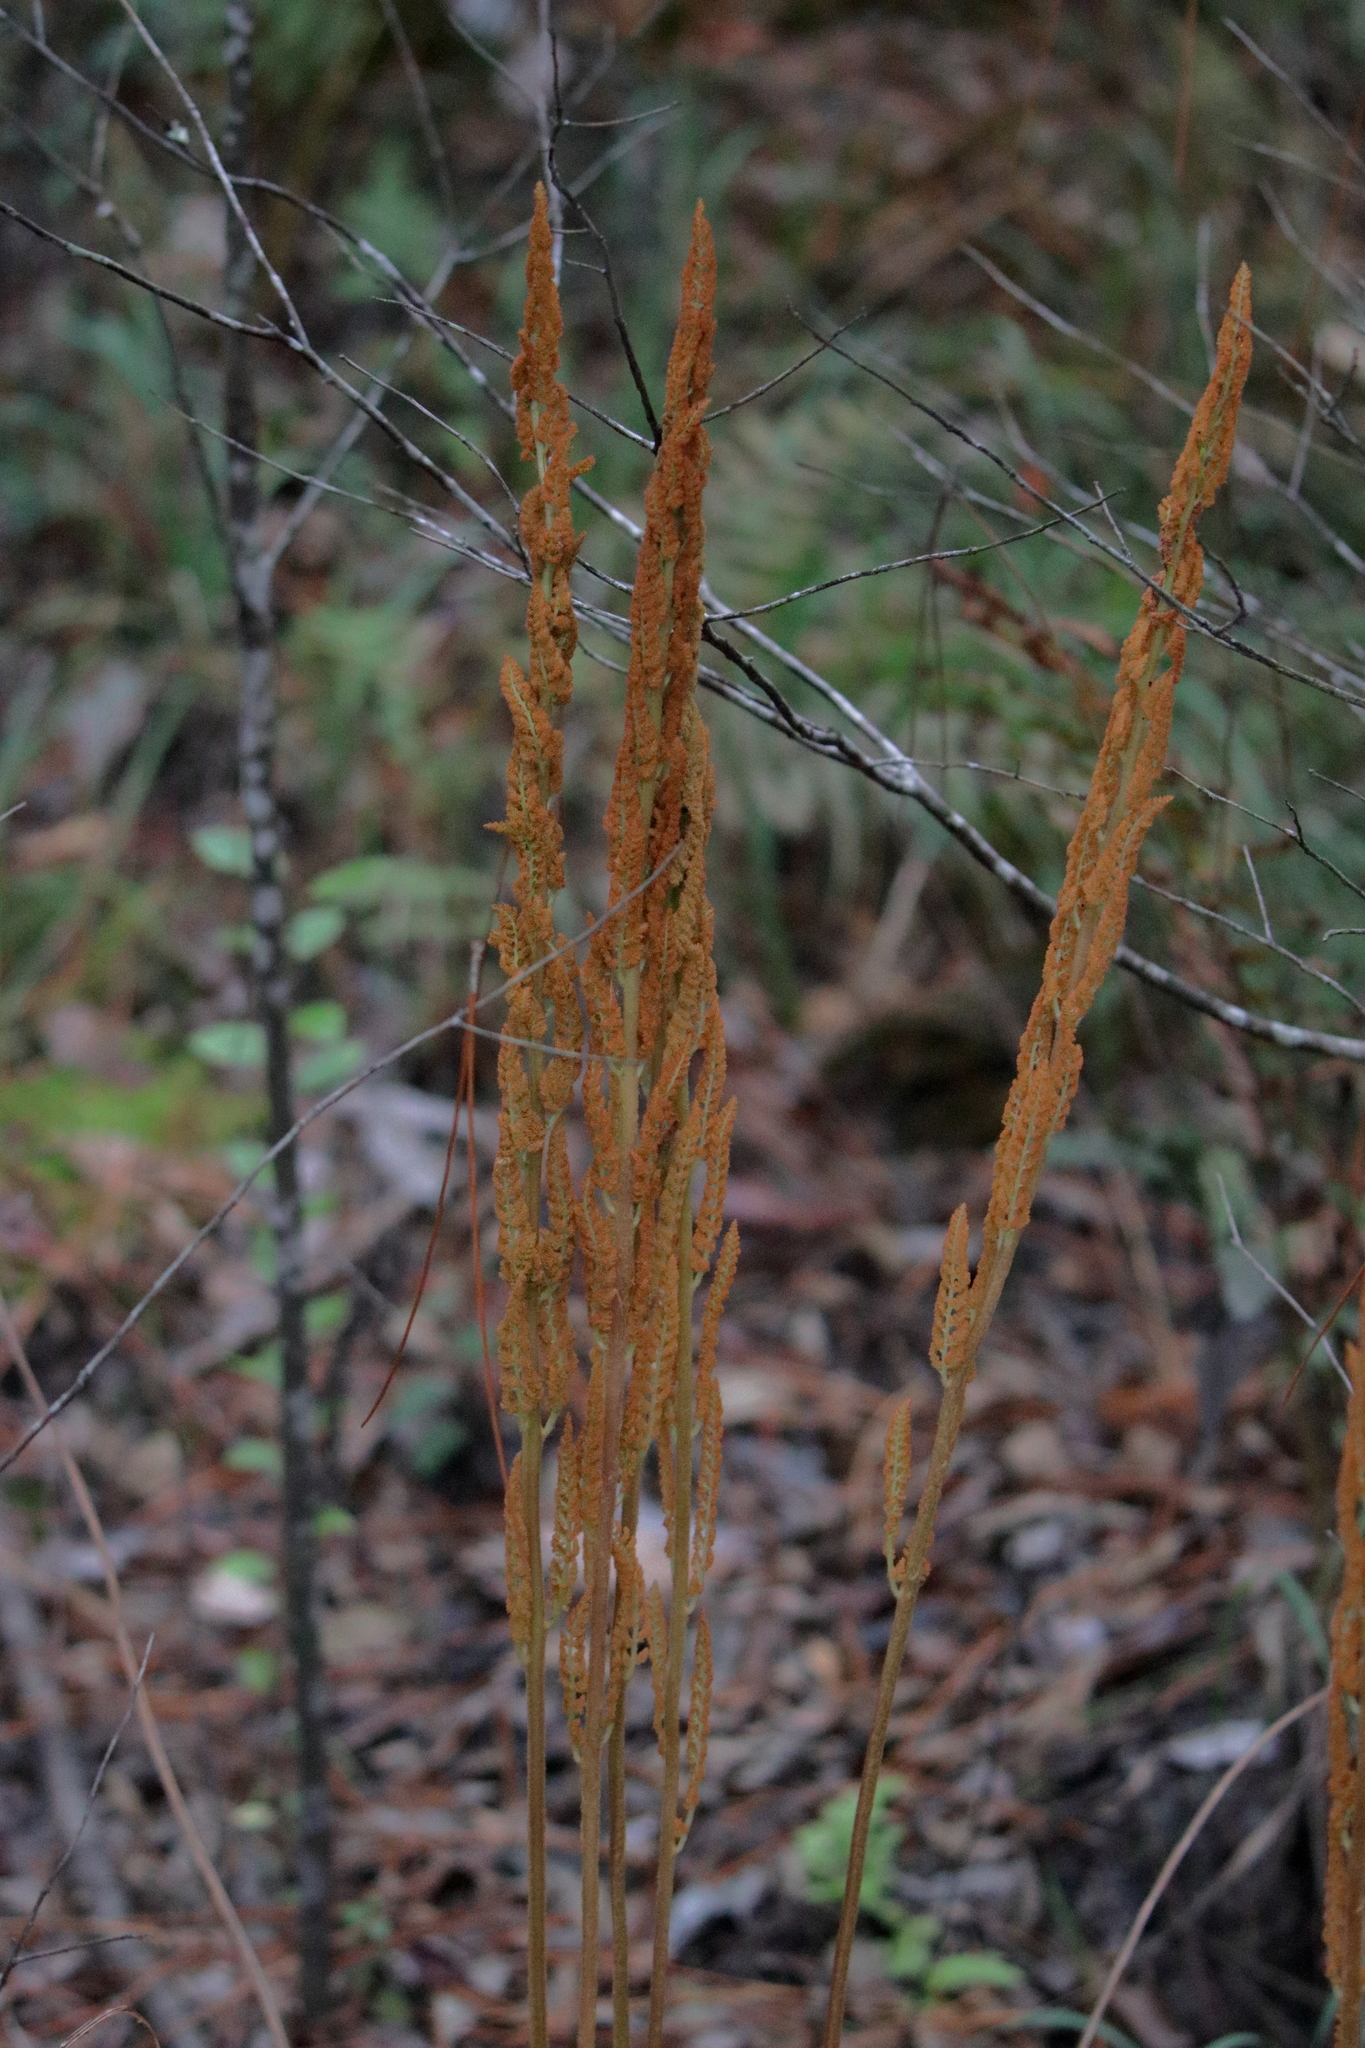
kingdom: Plantae
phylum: Tracheophyta
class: Polypodiopsida
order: Osmundales
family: Osmundaceae
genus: Osmundastrum
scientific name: Osmundastrum cinnamomeum
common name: Cinnamon fern
